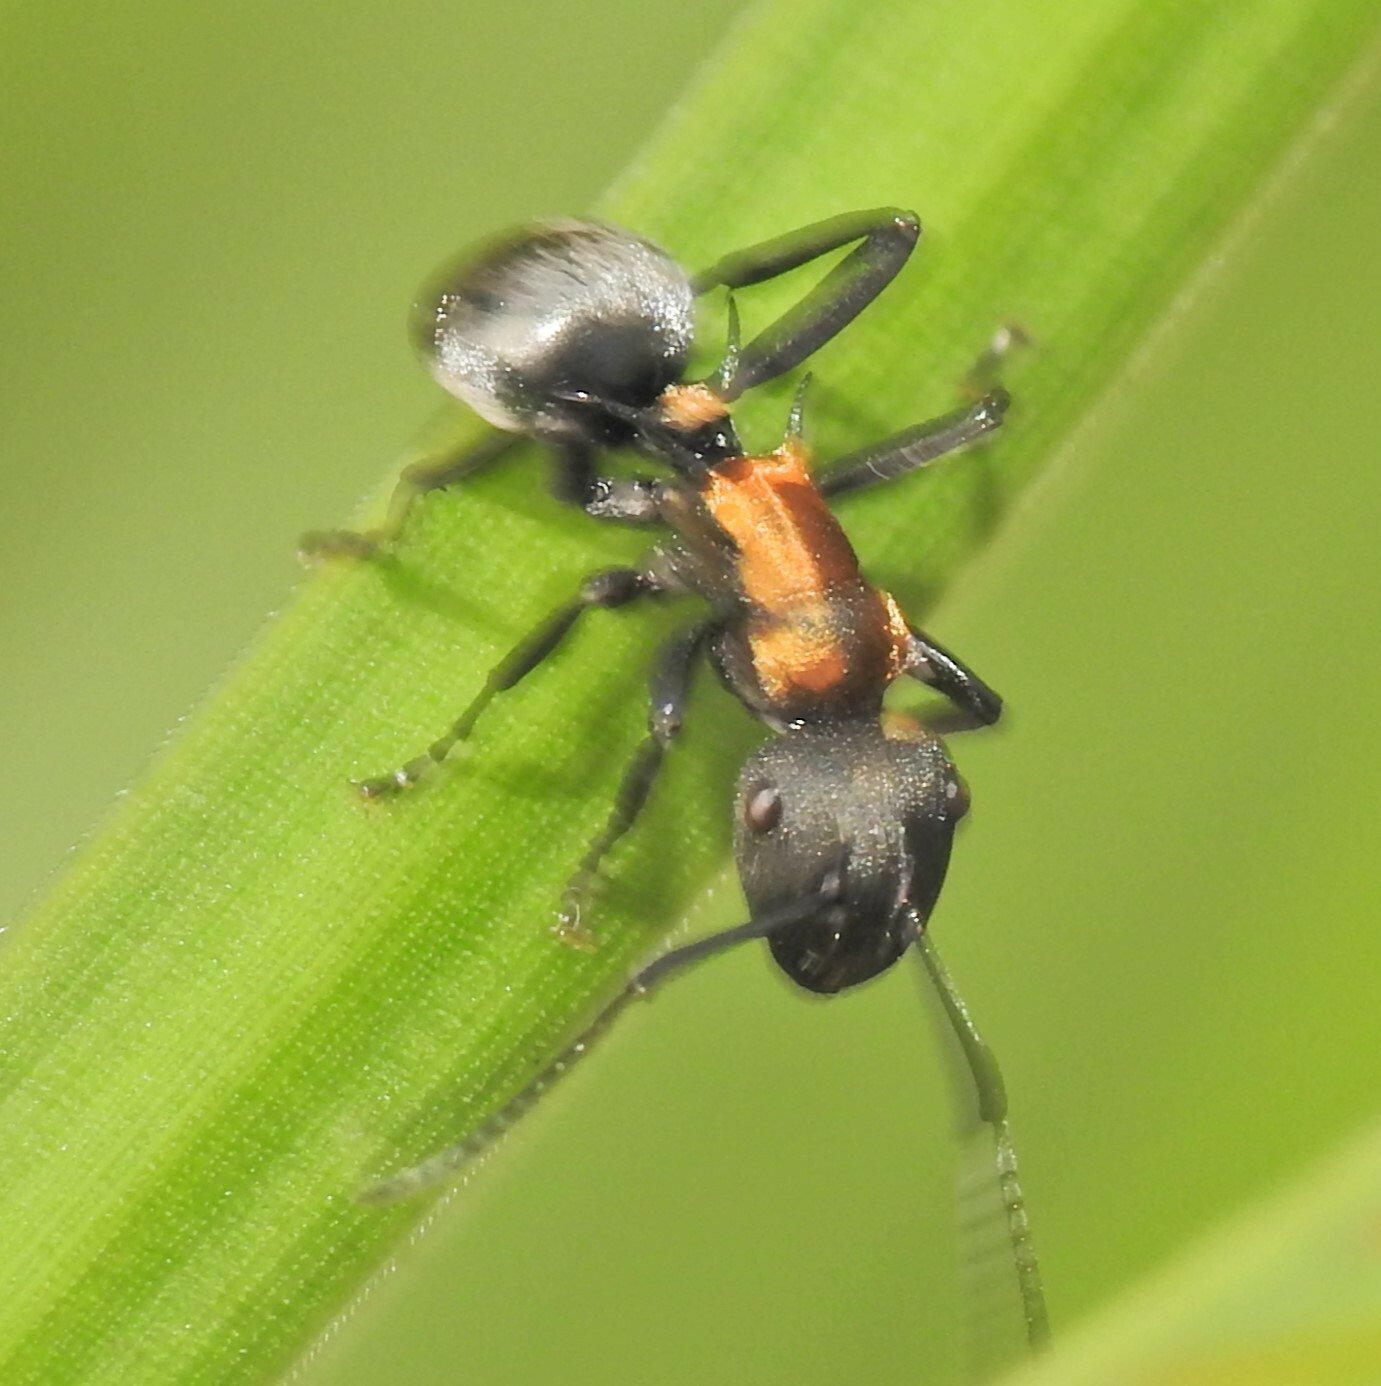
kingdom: Animalia
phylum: Arthropoda
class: Insecta
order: Hymenoptera
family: Formicidae
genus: Polyrhachis
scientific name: Polyrhachis ornata
